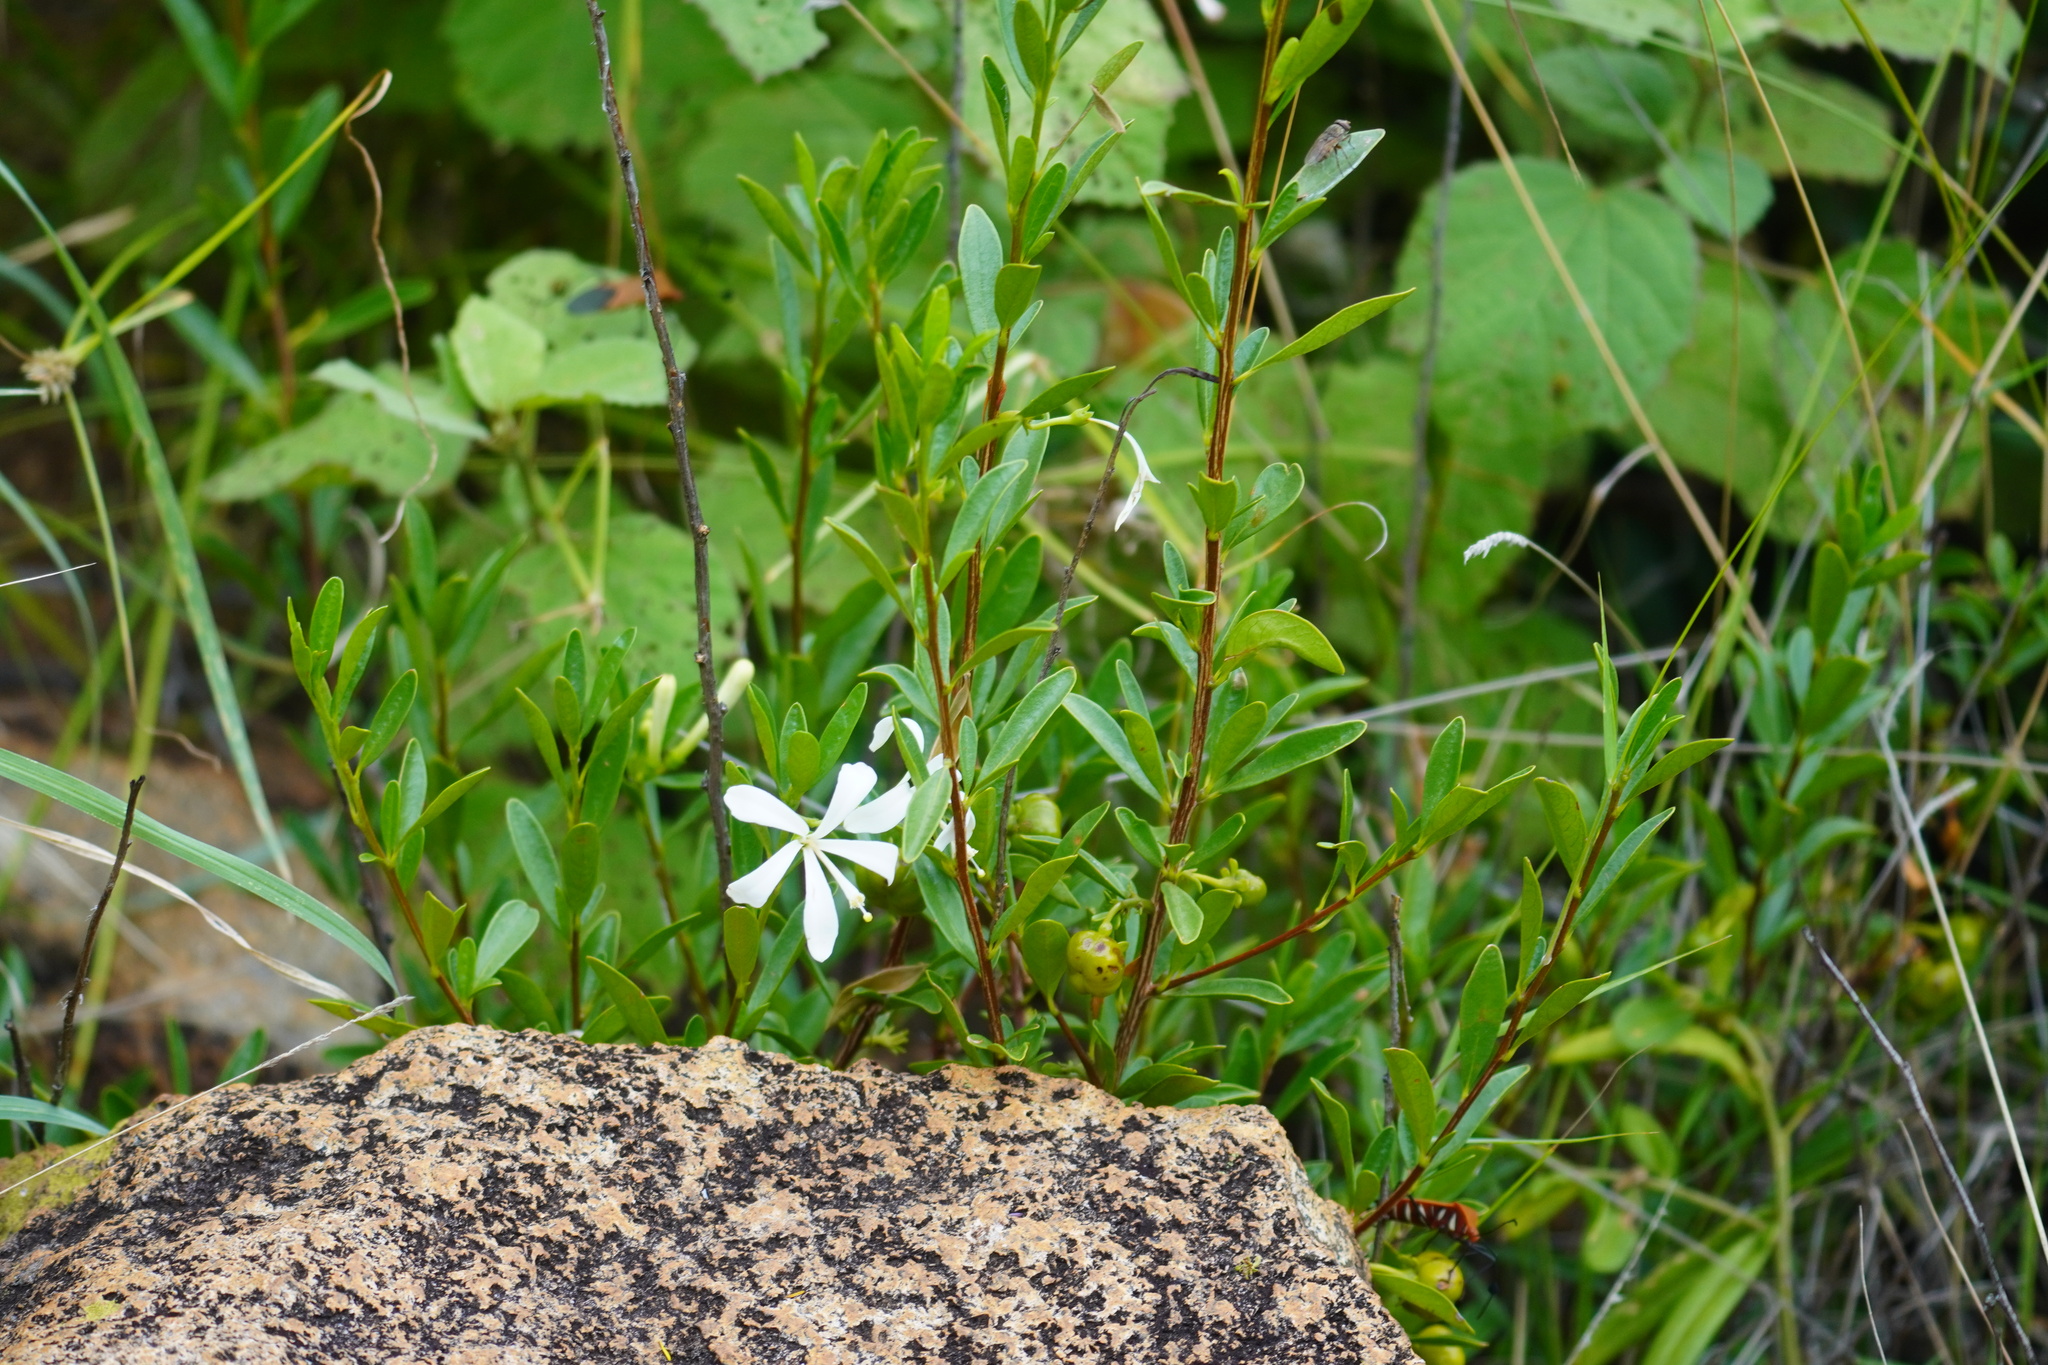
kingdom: Plantae
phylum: Tracheophyta
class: Magnoliopsida
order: Sapindales
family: Meliaceae
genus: Turraea
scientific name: Turraea obtusifolia
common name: Small honeysuckle tree
